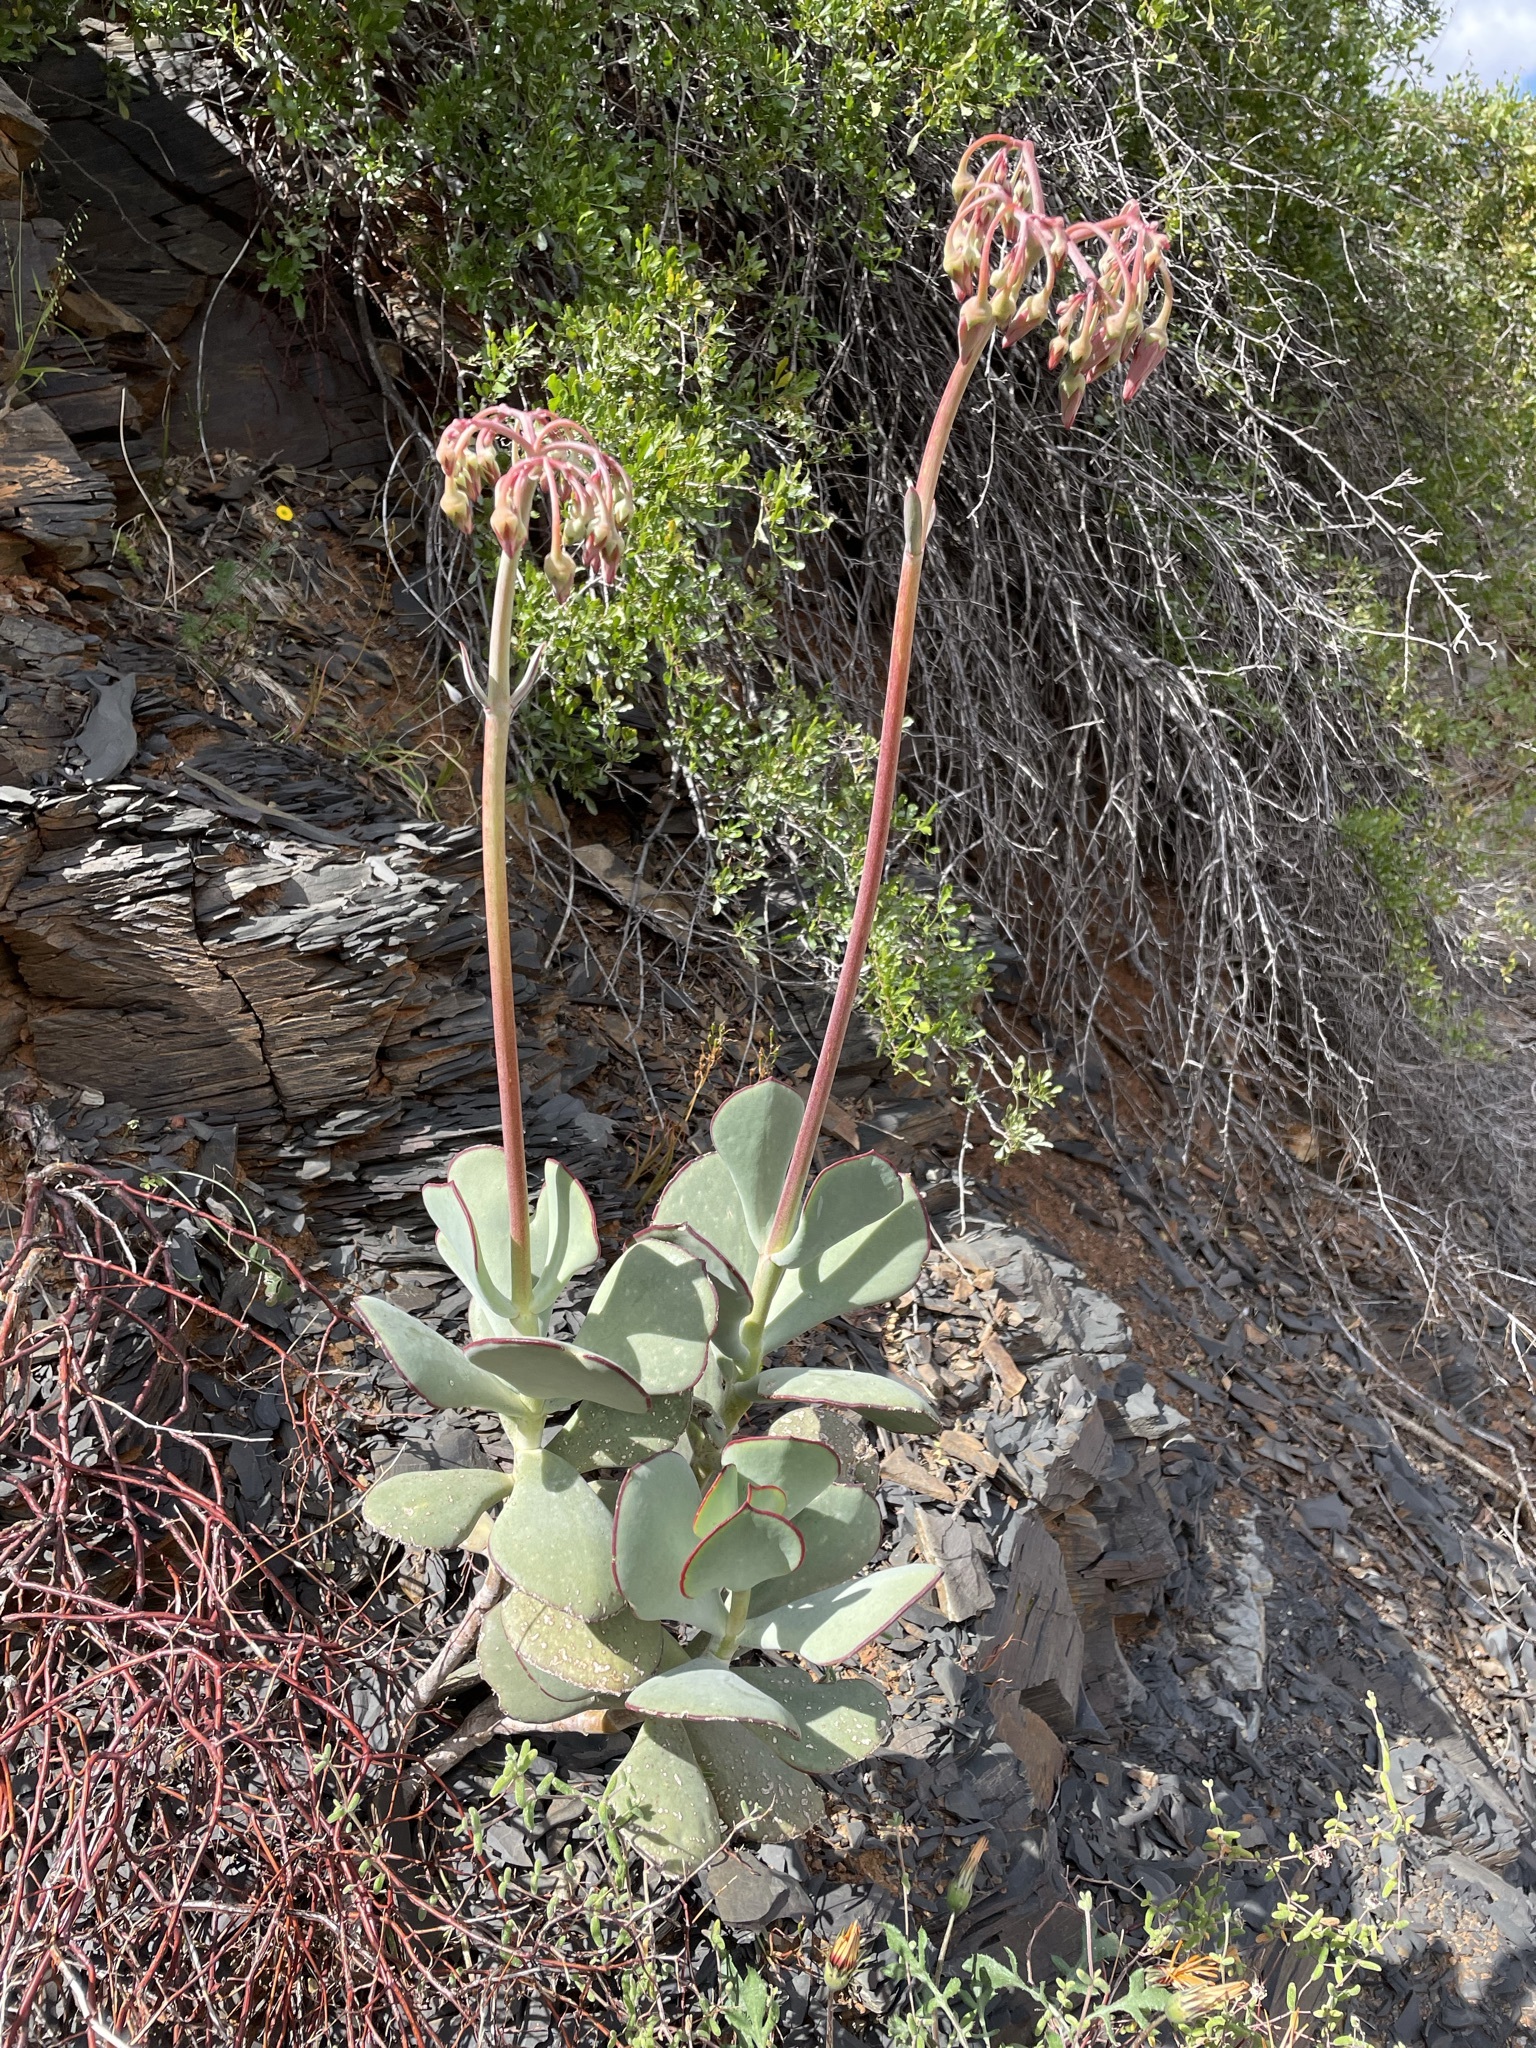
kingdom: Plantae
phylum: Tracheophyta
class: Magnoliopsida
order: Saxifragales
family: Crassulaceae
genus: Cotyledon
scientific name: Cotyledon orbiculata
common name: Pig's ear
